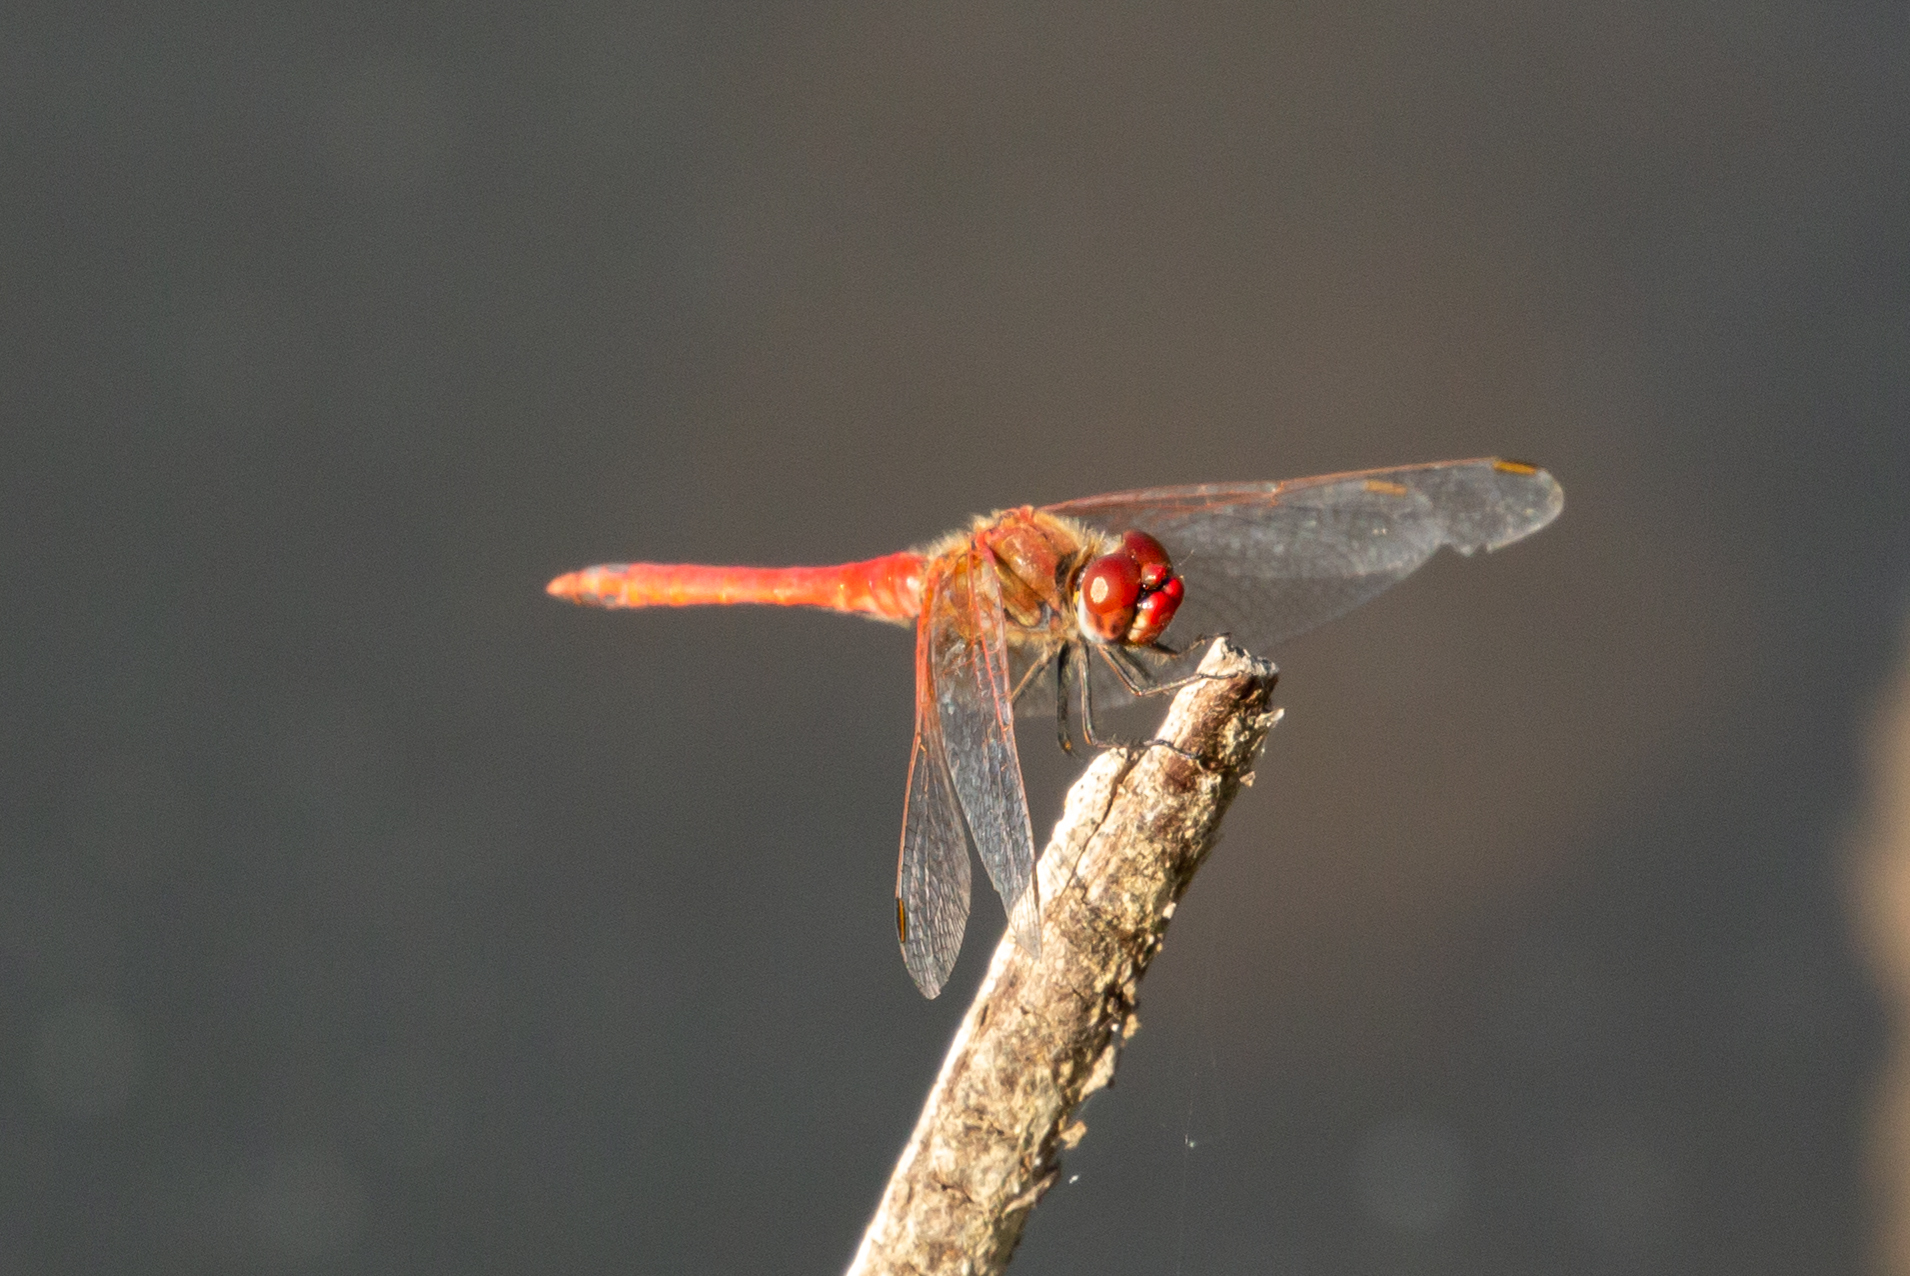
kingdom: Animalia
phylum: Arthropoda
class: Insecta
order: Odonata
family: Libellulidae
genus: Sympetrum
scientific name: Sympetrum fonscolombii
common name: Red-veined darter
